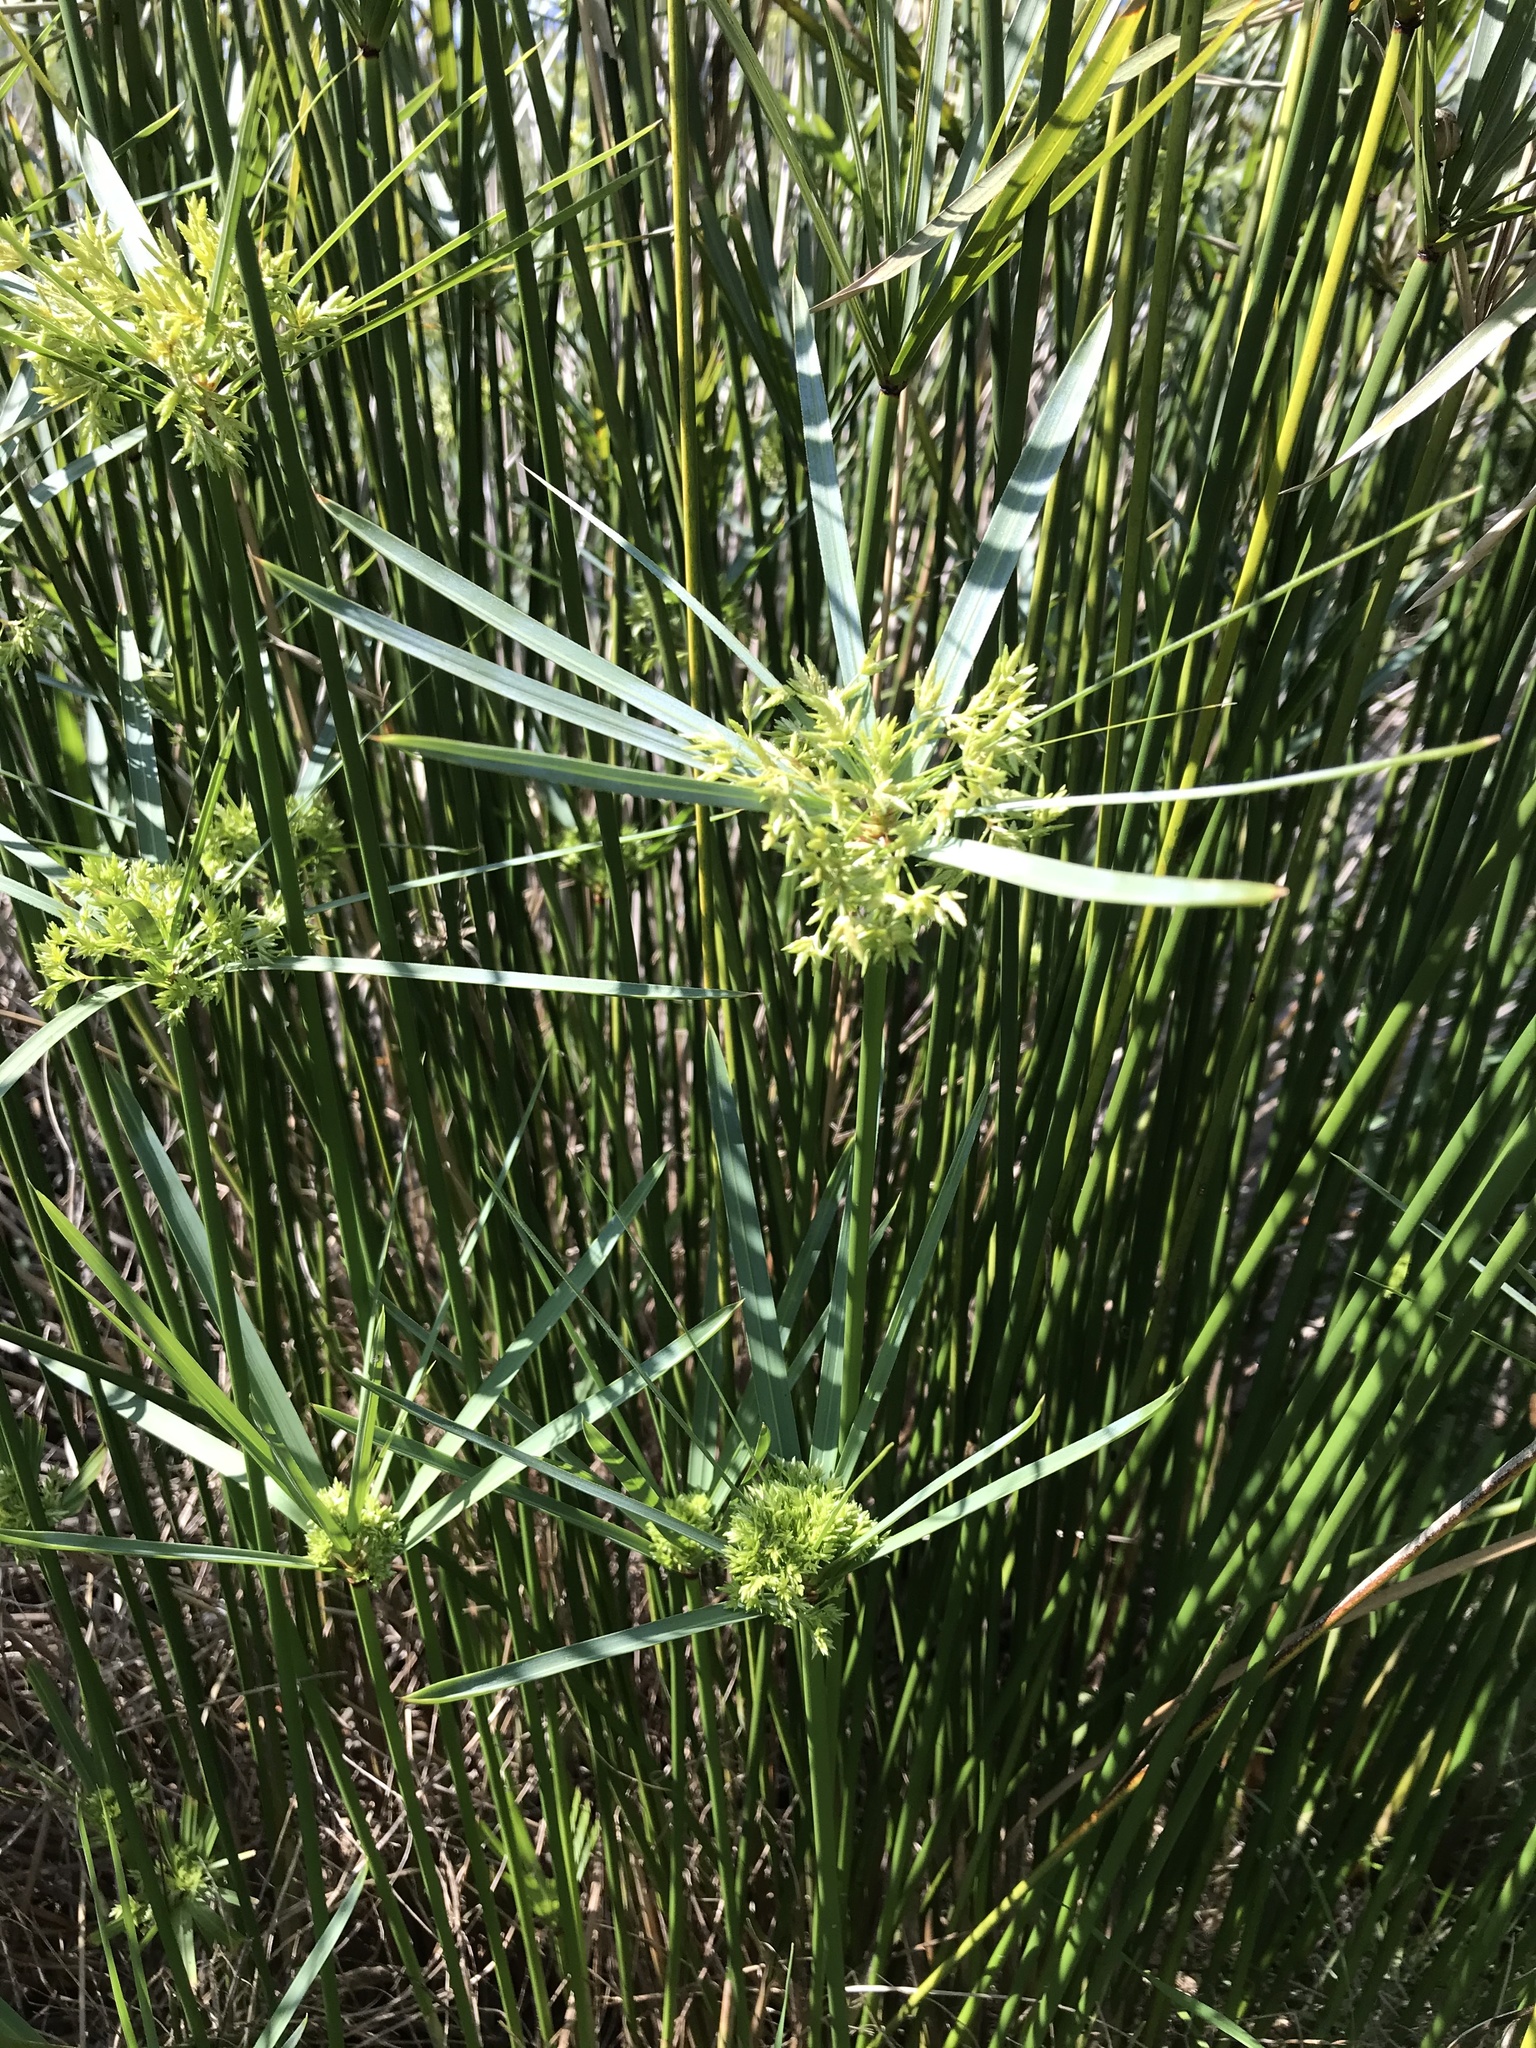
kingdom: Plantae
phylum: Tracheophyta
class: Liliopsida
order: Poales
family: Cyperaceae
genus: Cyperus
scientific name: Cyperus textilis
